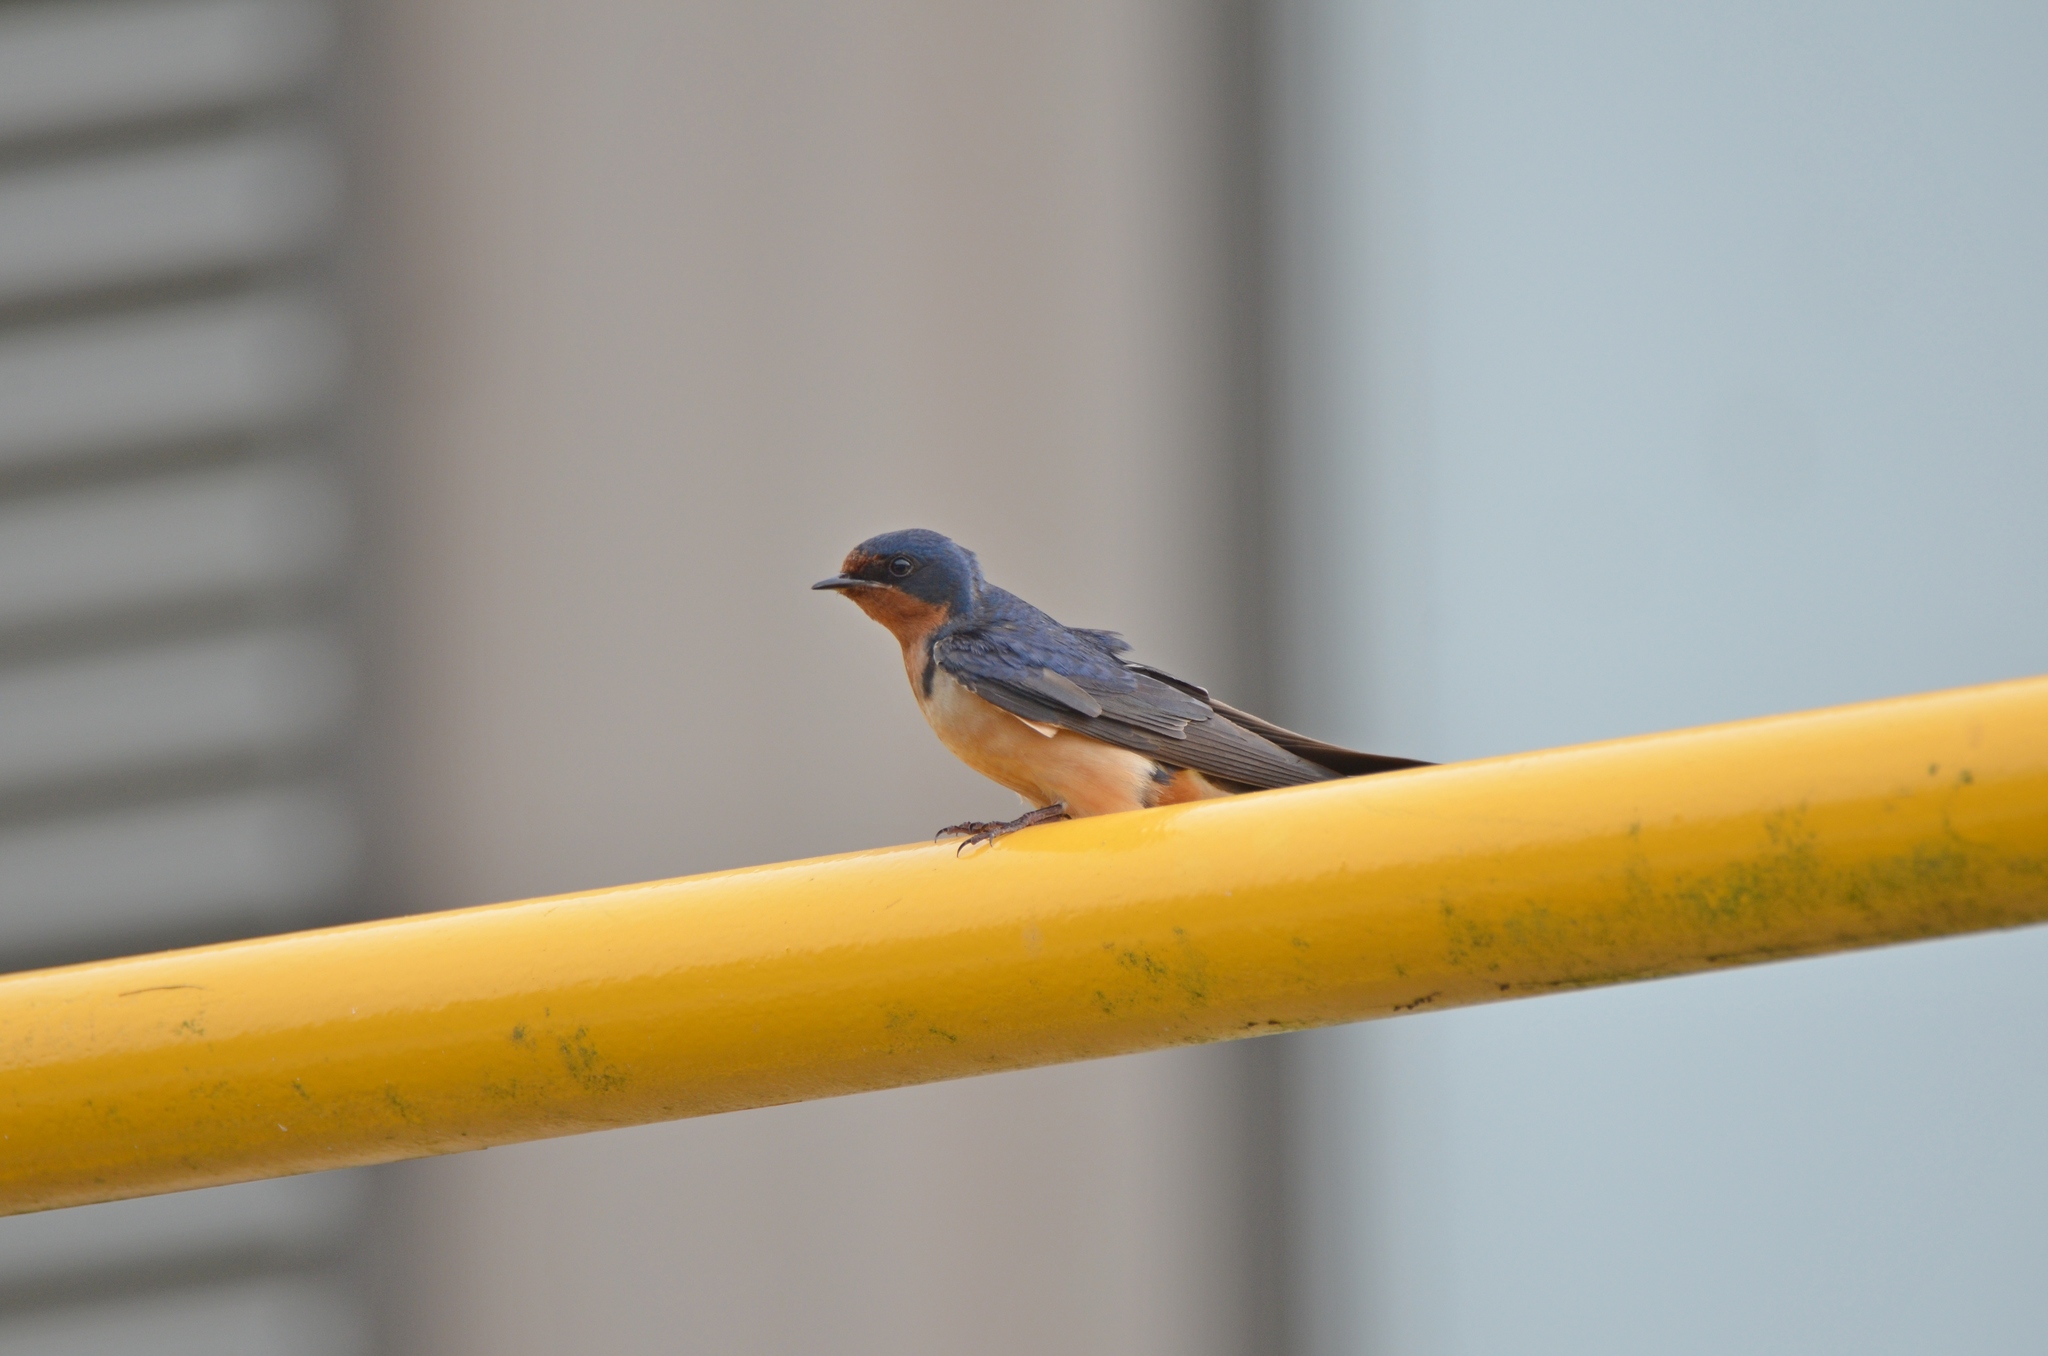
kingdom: Animalia
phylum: Chordata
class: Aves
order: Passeriformes
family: Hirundinidae
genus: Hirundo
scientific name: Hirundo rustica
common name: Barn swallow
